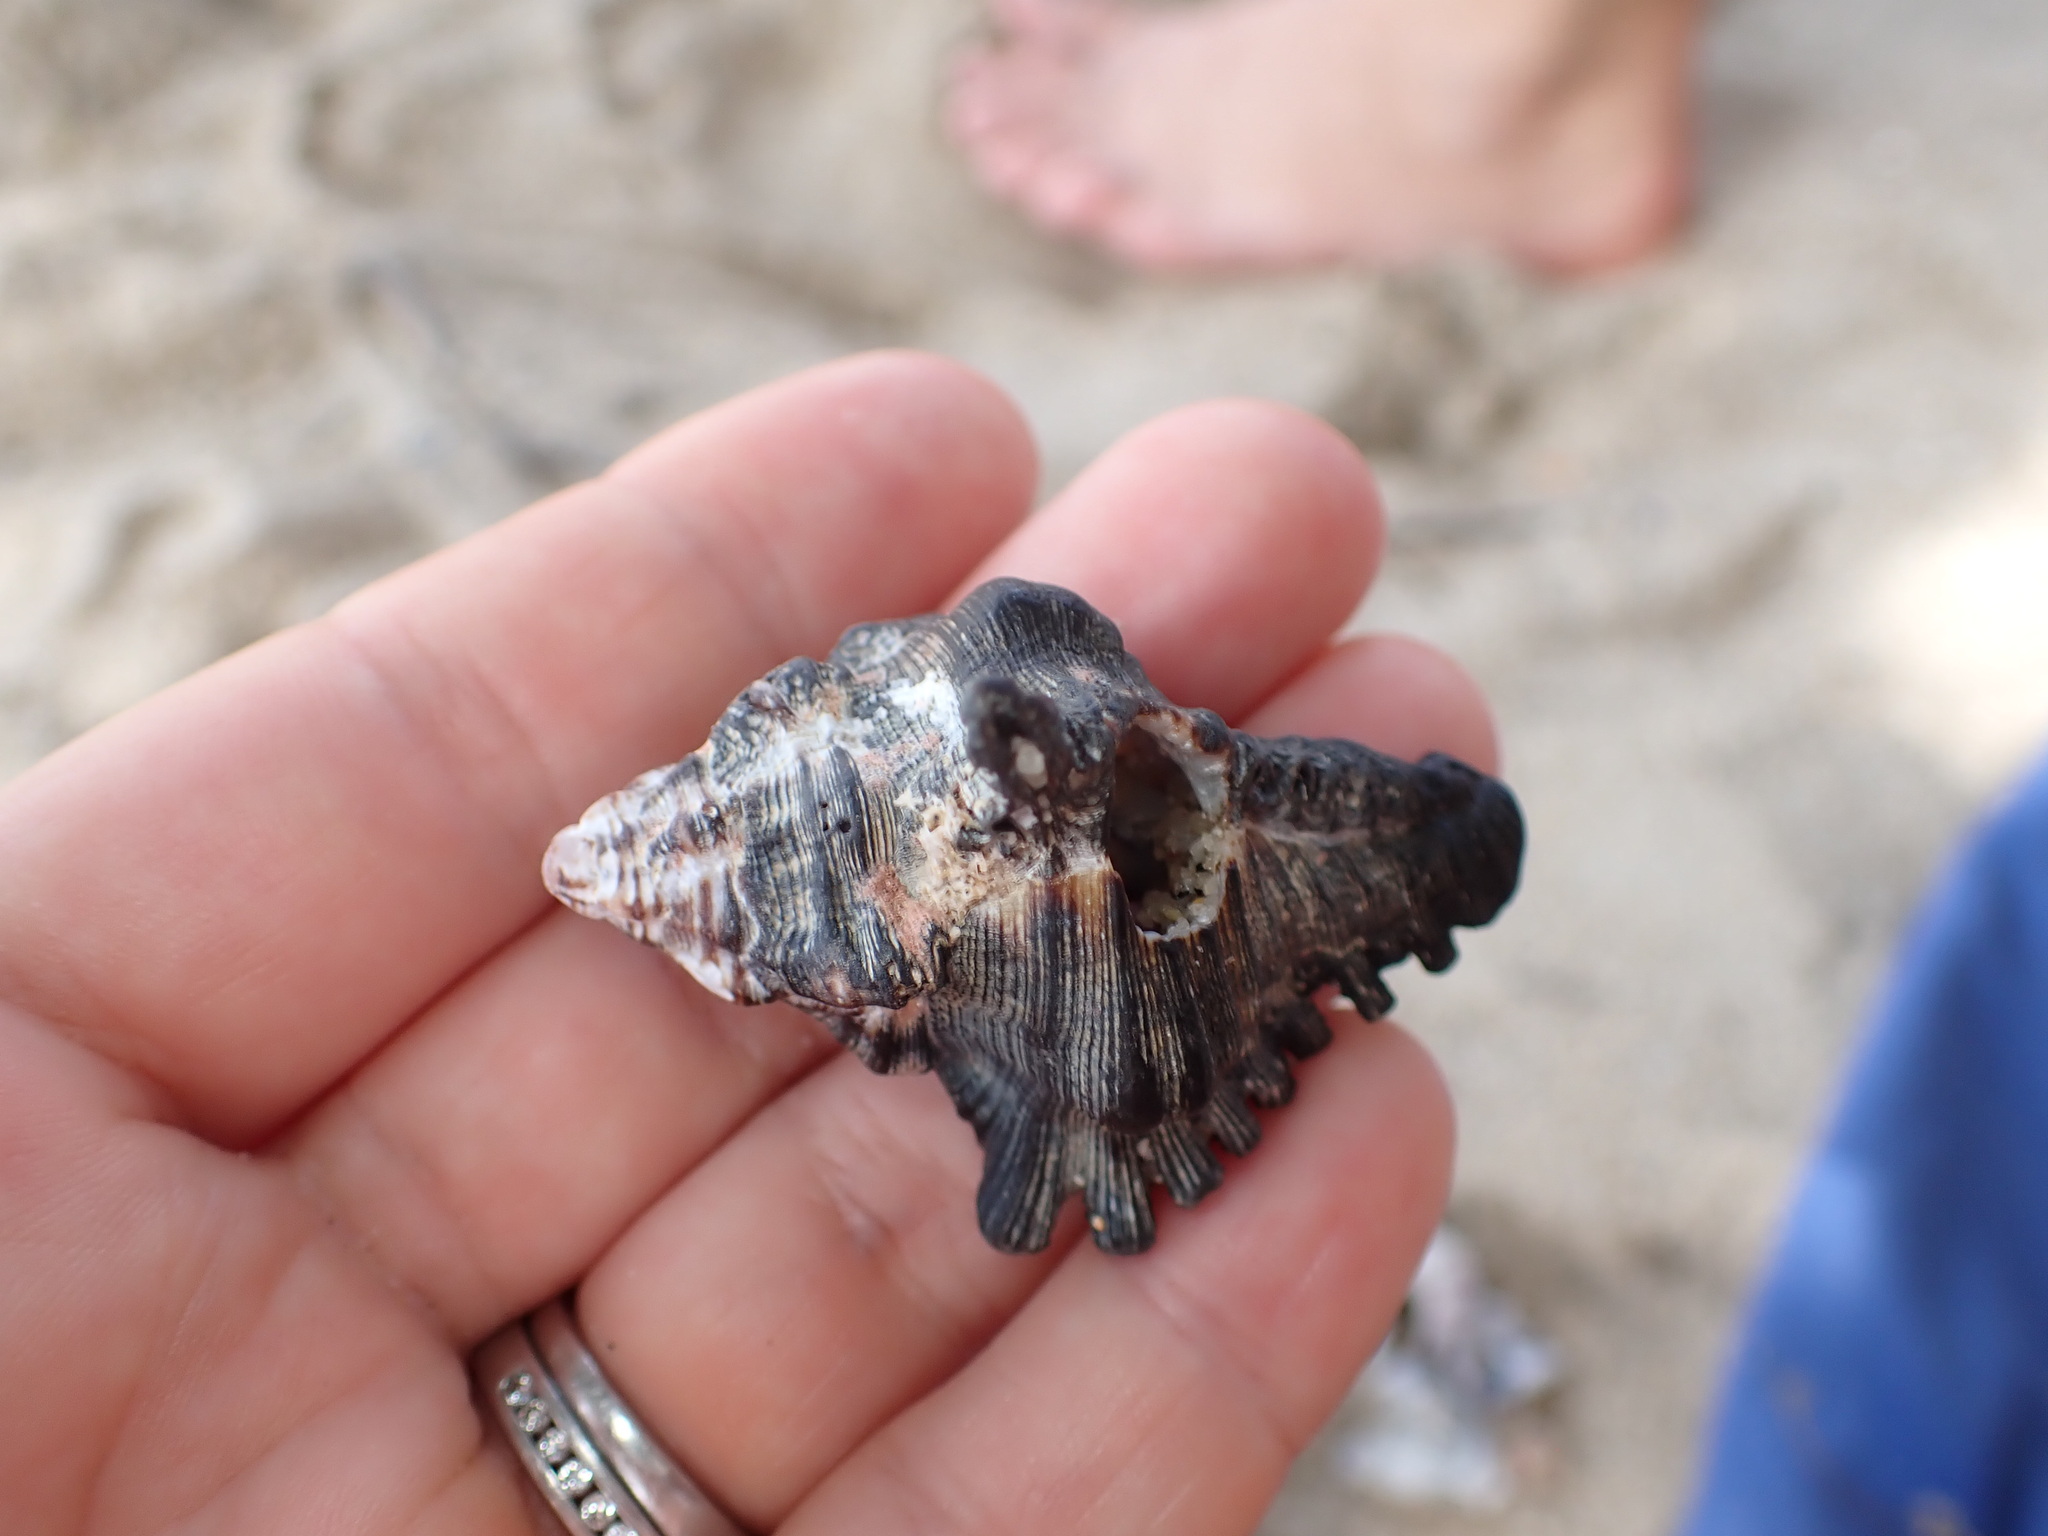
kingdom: Animalia
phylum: Mollusca
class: Gastropoda
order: Neogastropoda
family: Muricidae
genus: Chicoreus
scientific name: Chicoreus brunneus
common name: Adusta murex
